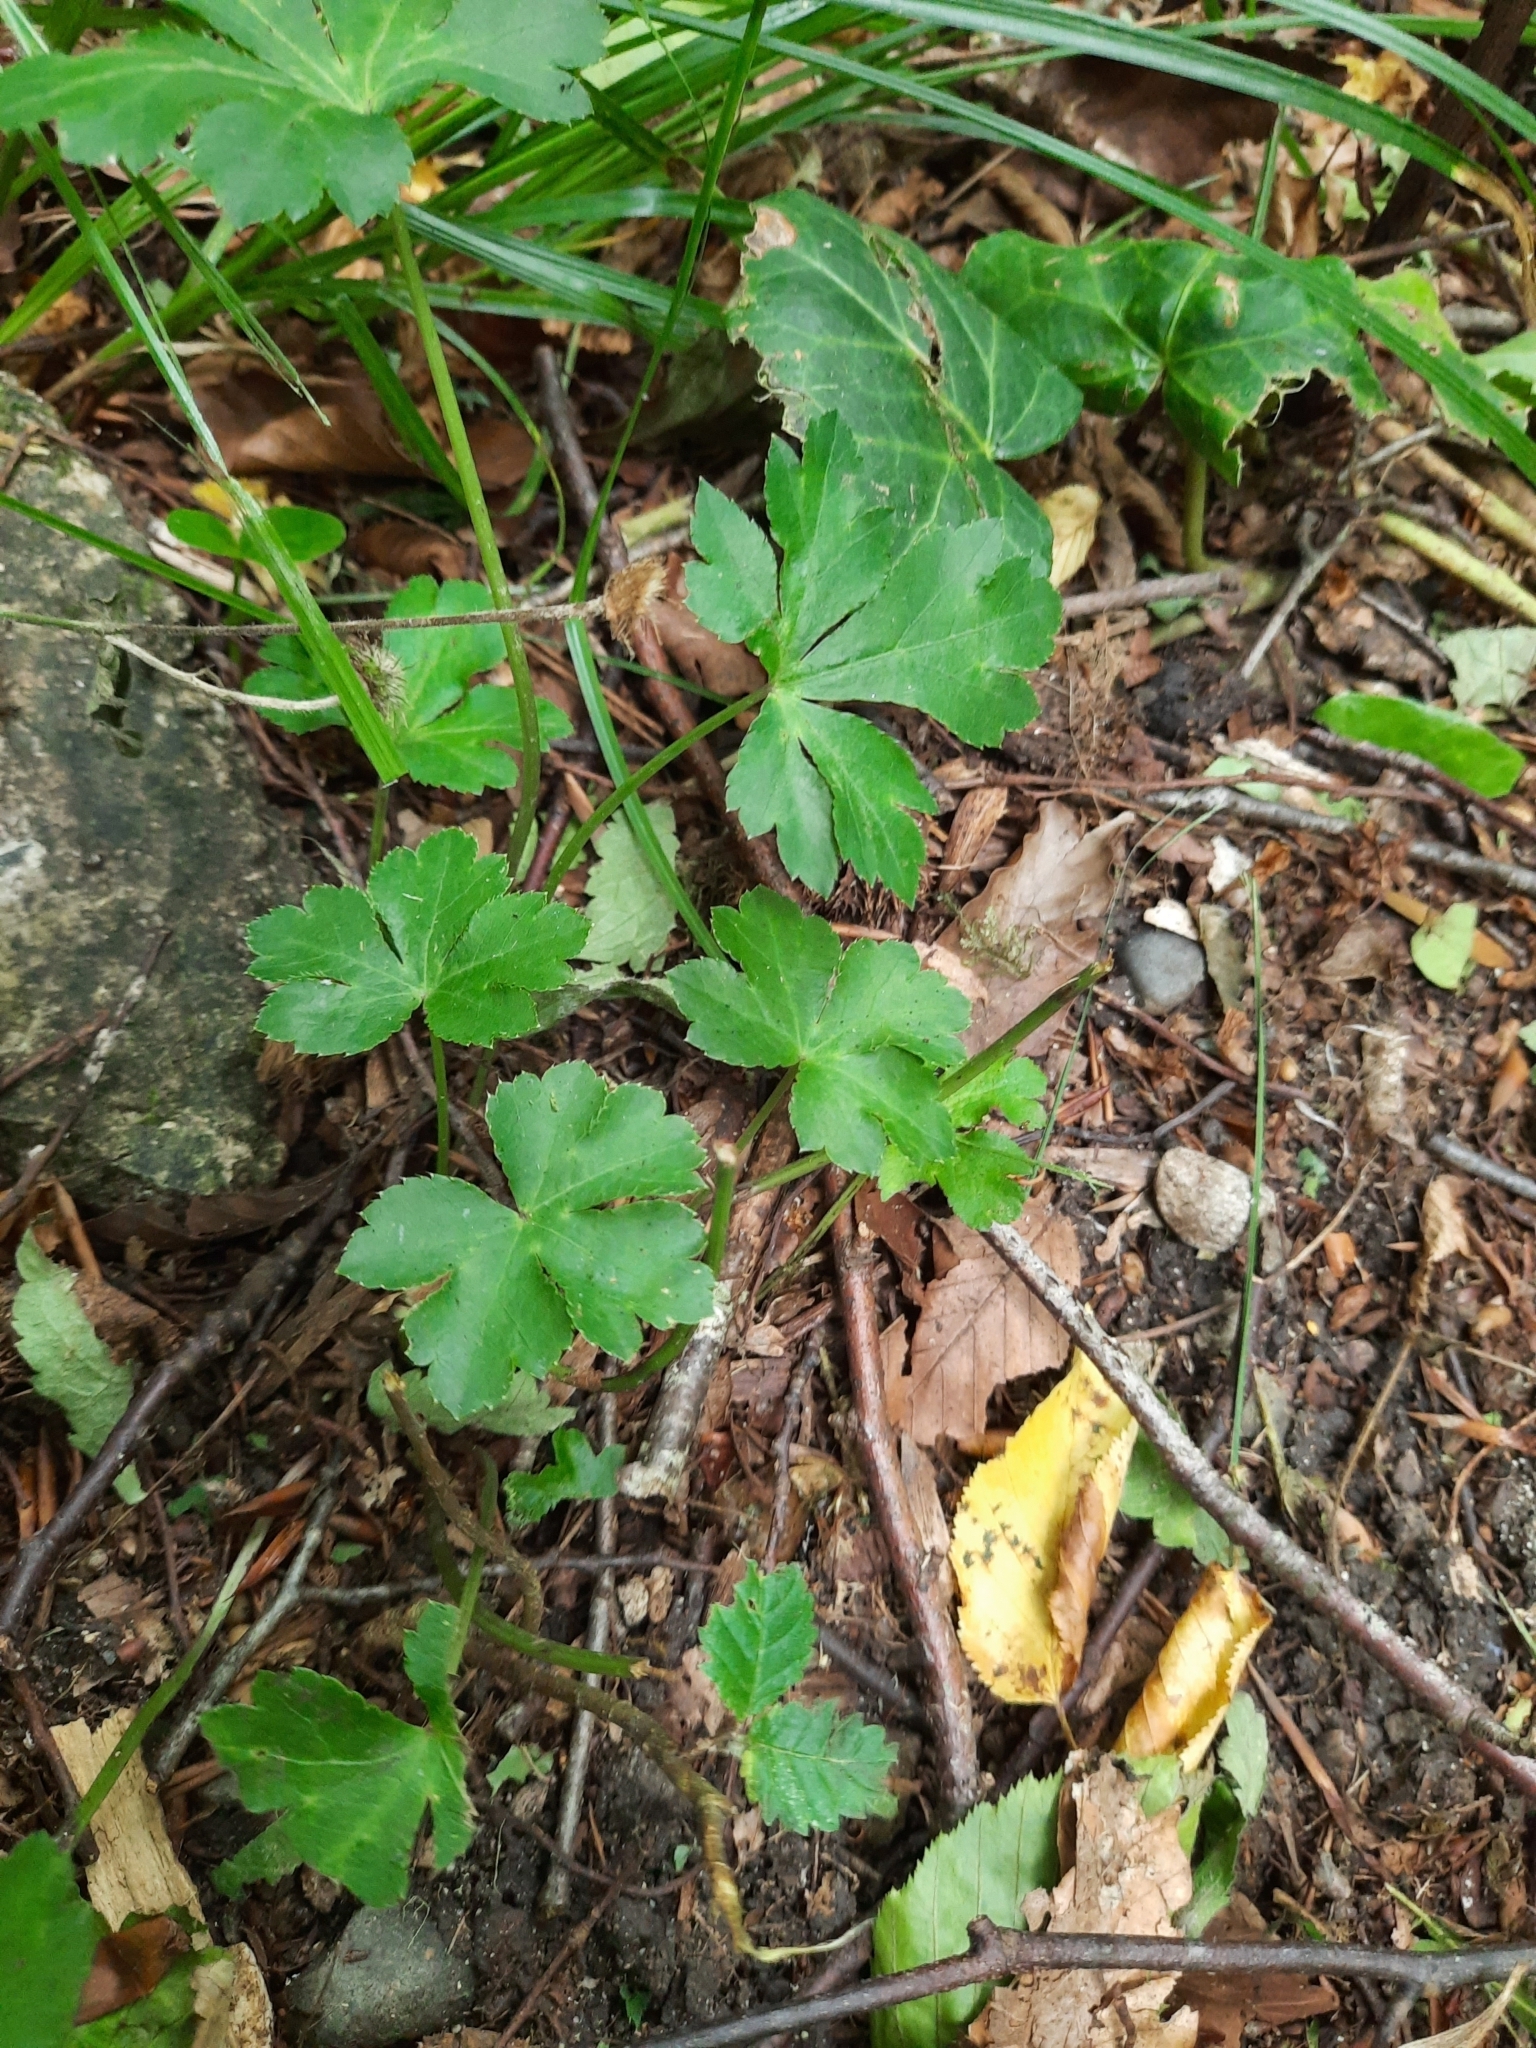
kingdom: Plantae
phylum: Tracheophyta
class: Magnoliopsida
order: Apiales
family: Apiaceae
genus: Sanicula
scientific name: Sanicula europaea
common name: Sanicle
